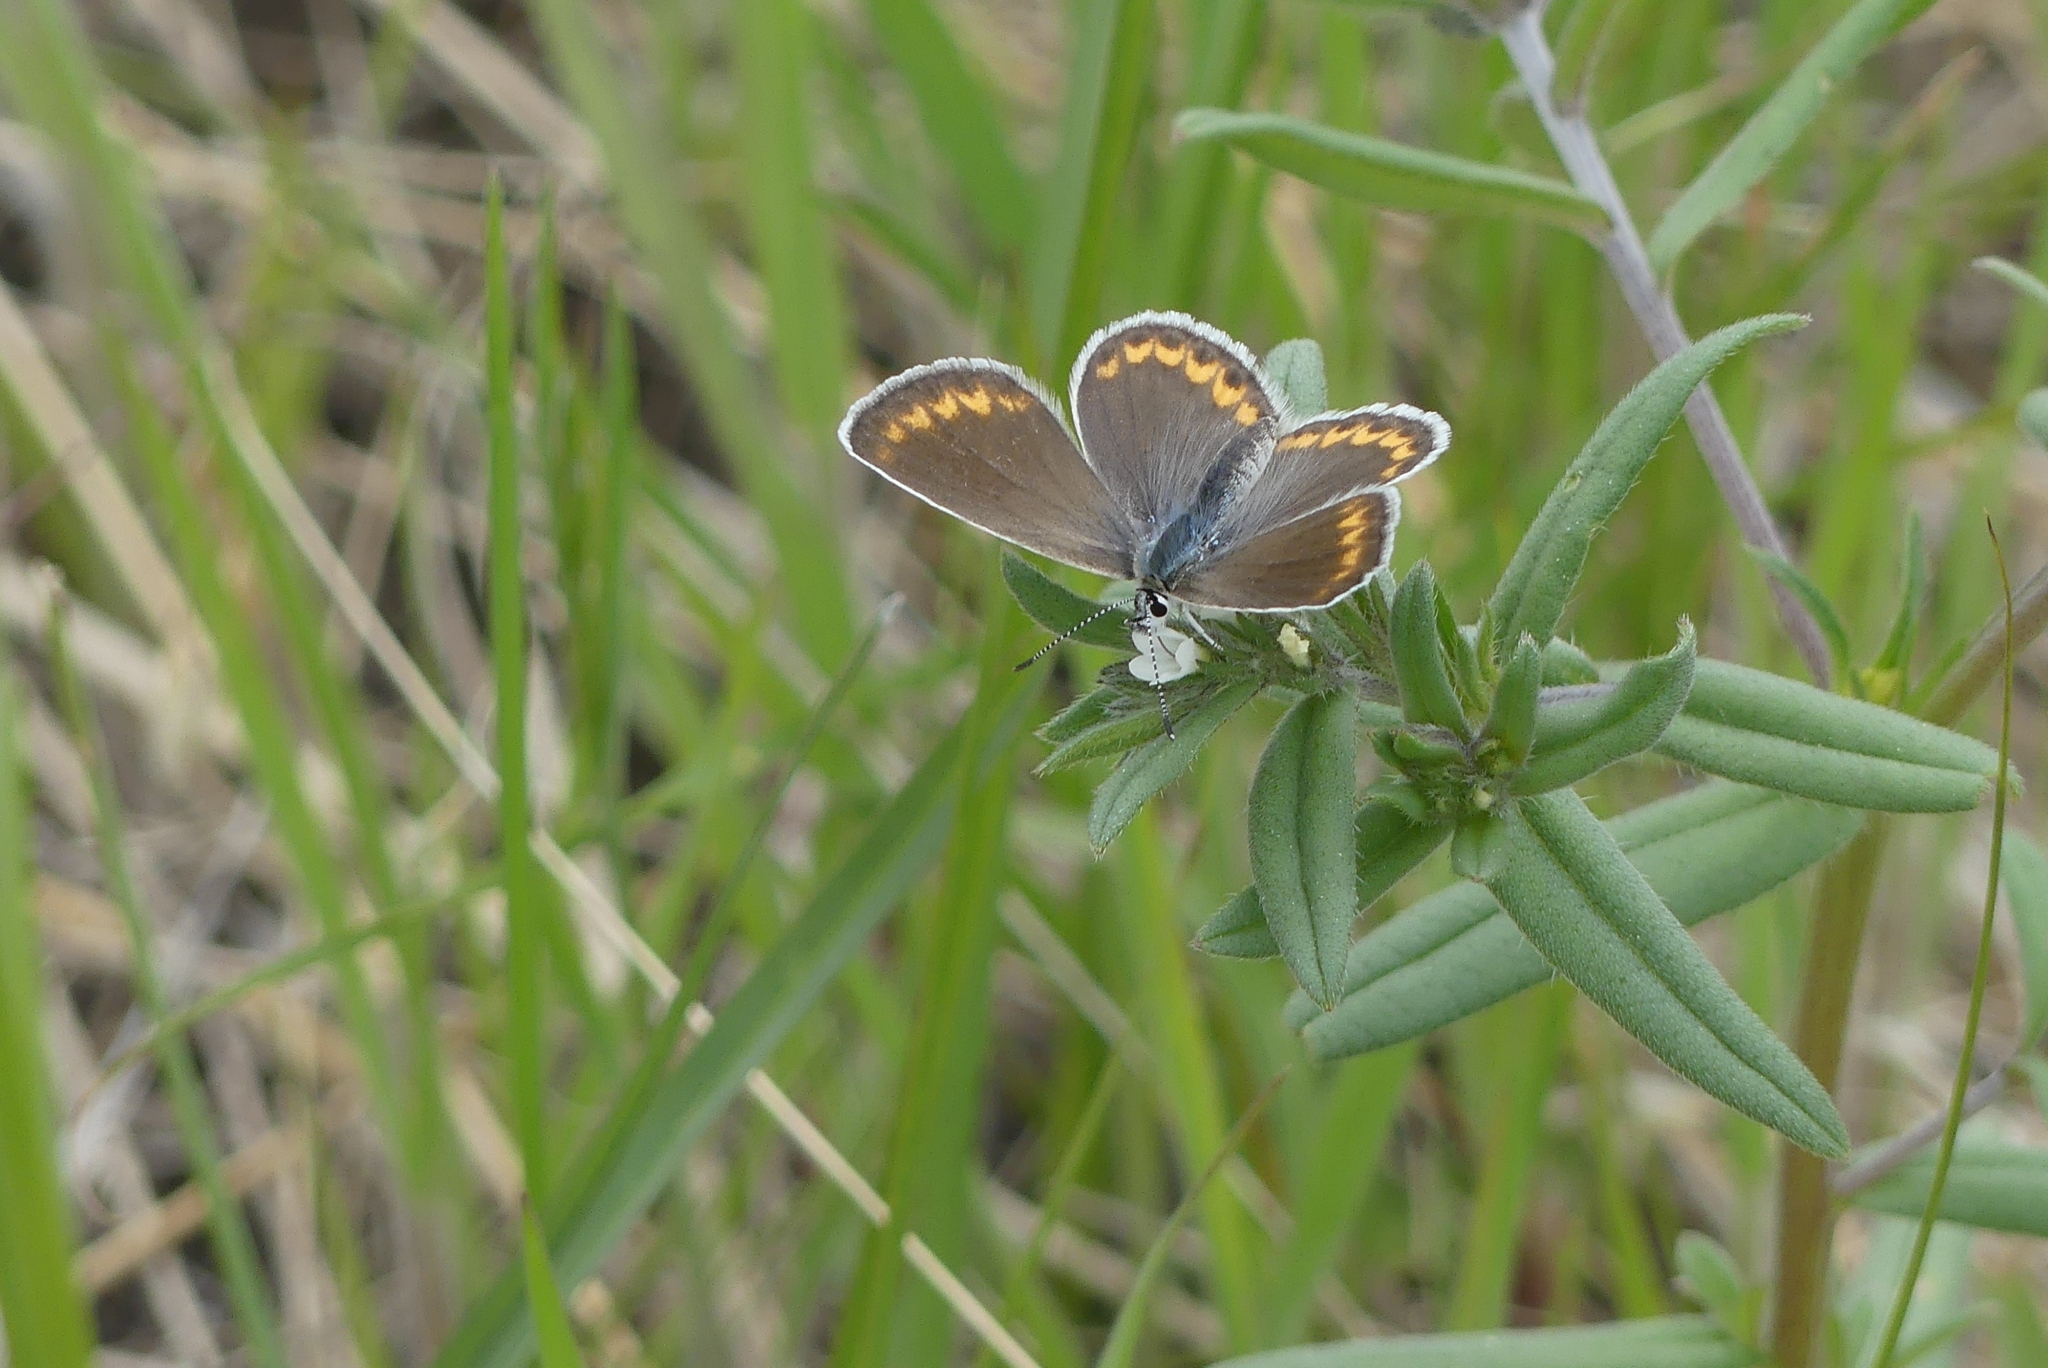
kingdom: Animalia
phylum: Arthropoda
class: Insecta
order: Lepidoptera
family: Lycaenidae
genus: Lycaeides
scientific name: Lycaeides melissa
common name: Melissa blue
